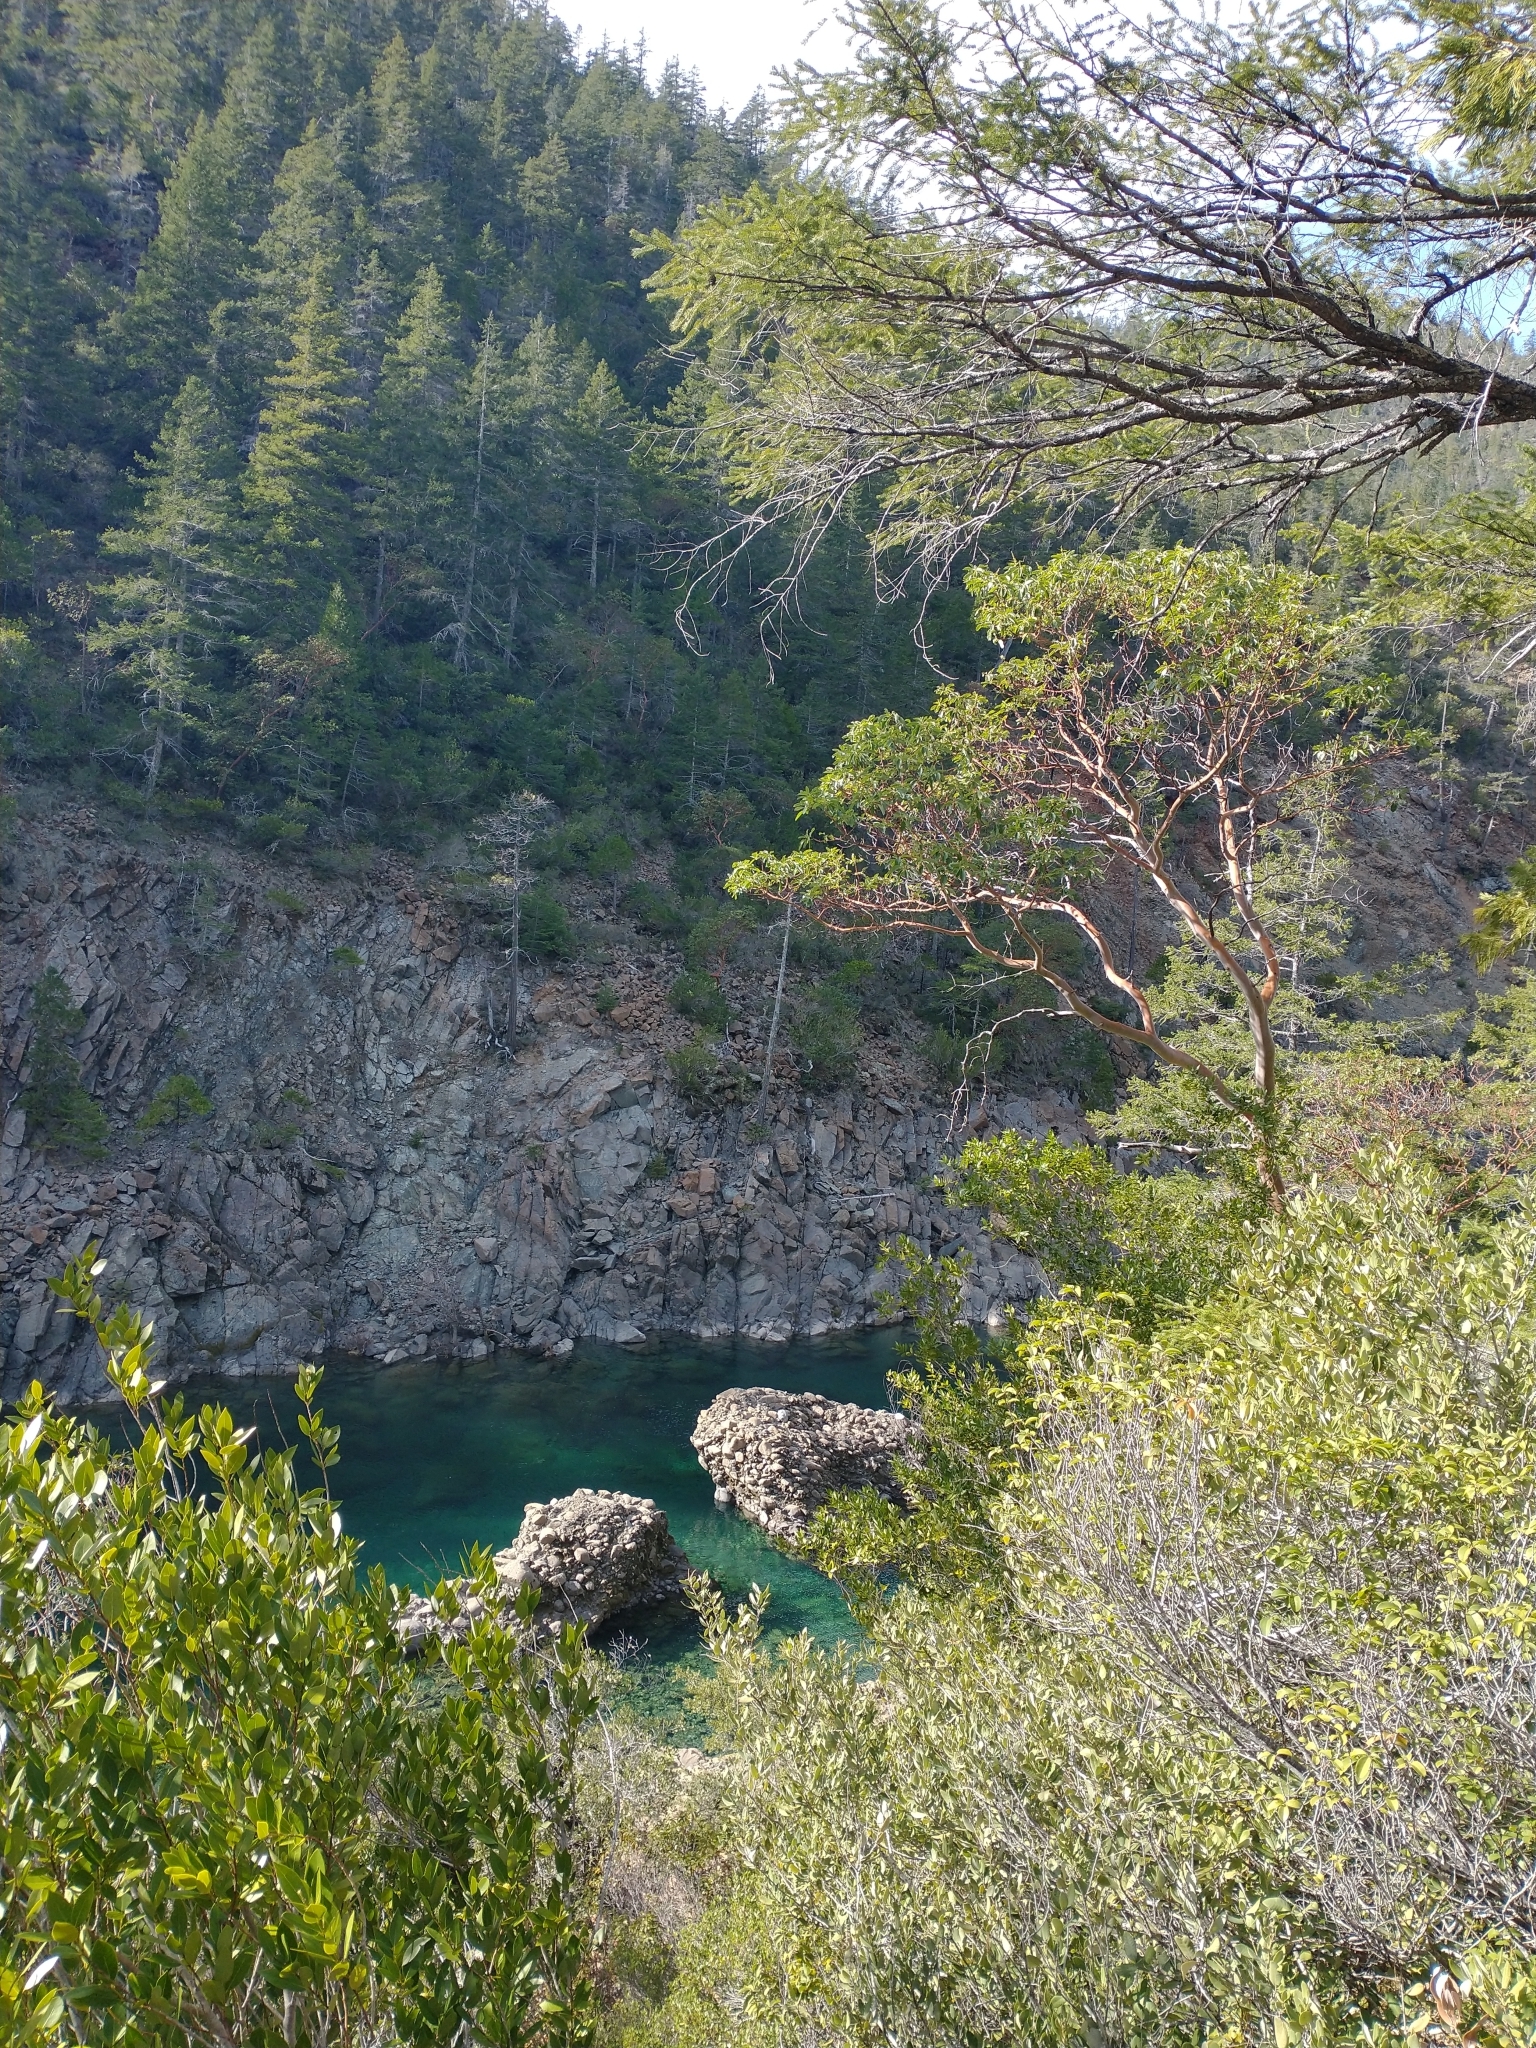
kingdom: Plantae
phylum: Tracheophyta
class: Magnoliopsida
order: Ericales
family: Ericaceae
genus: Arbutus
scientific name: Arbutus menziesii
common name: Pacific madrone
